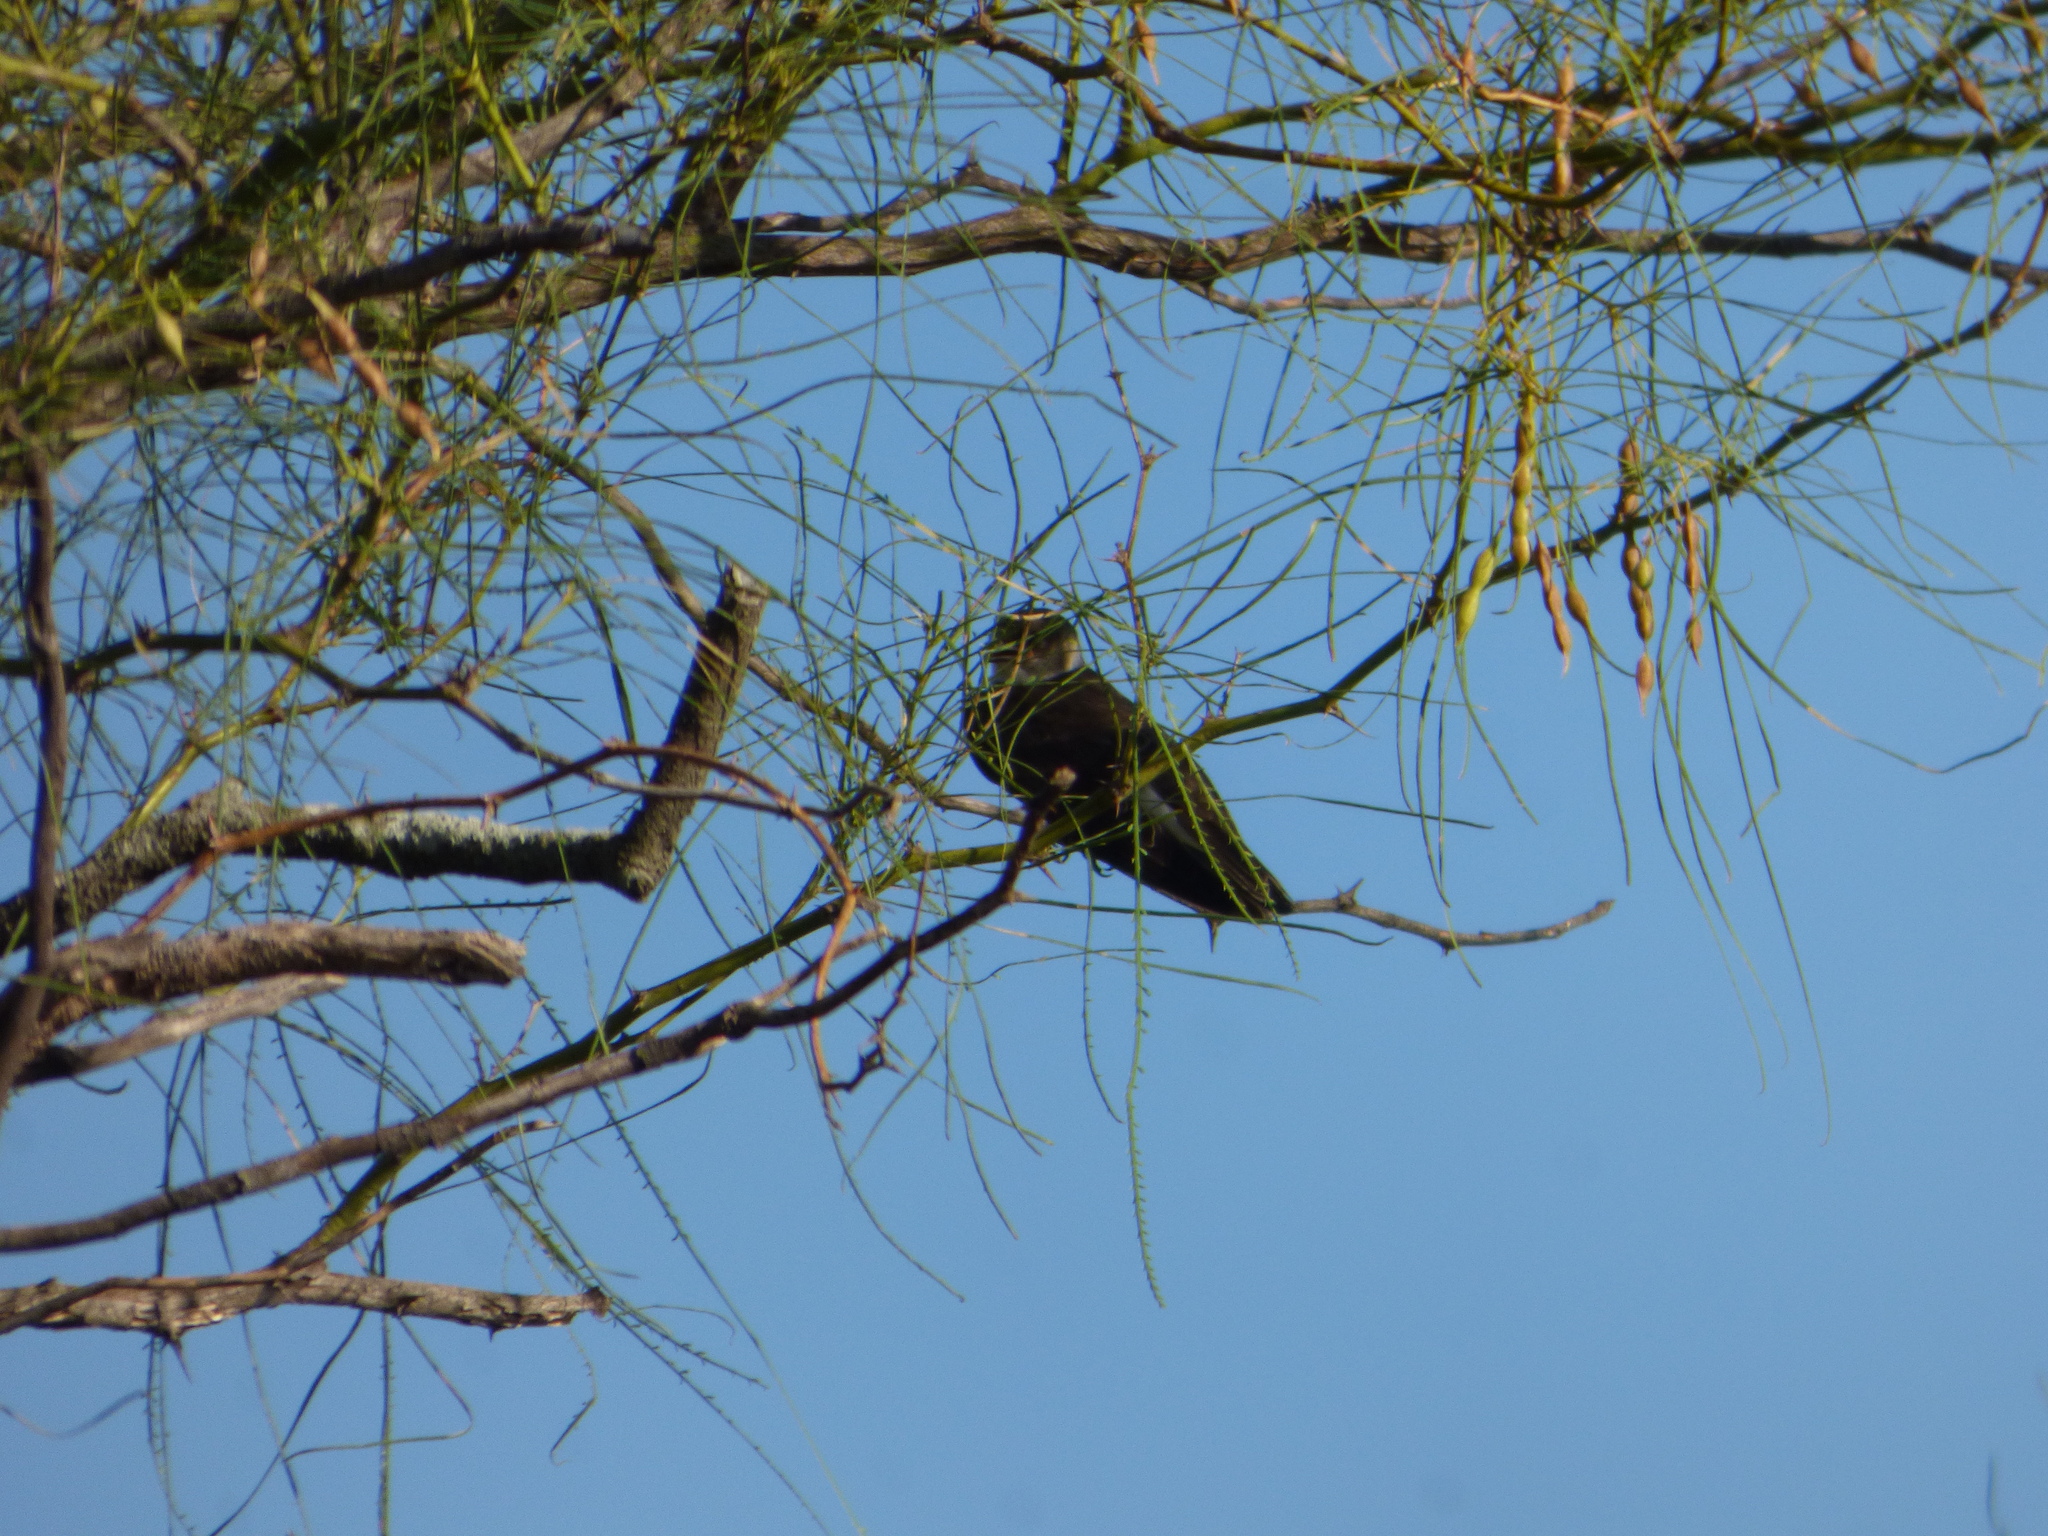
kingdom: Animalia
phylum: Chordata
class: Aves
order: Passeriformes
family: Hirundinidae
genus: Progne
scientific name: Progne tapera
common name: Brown-chested martin
